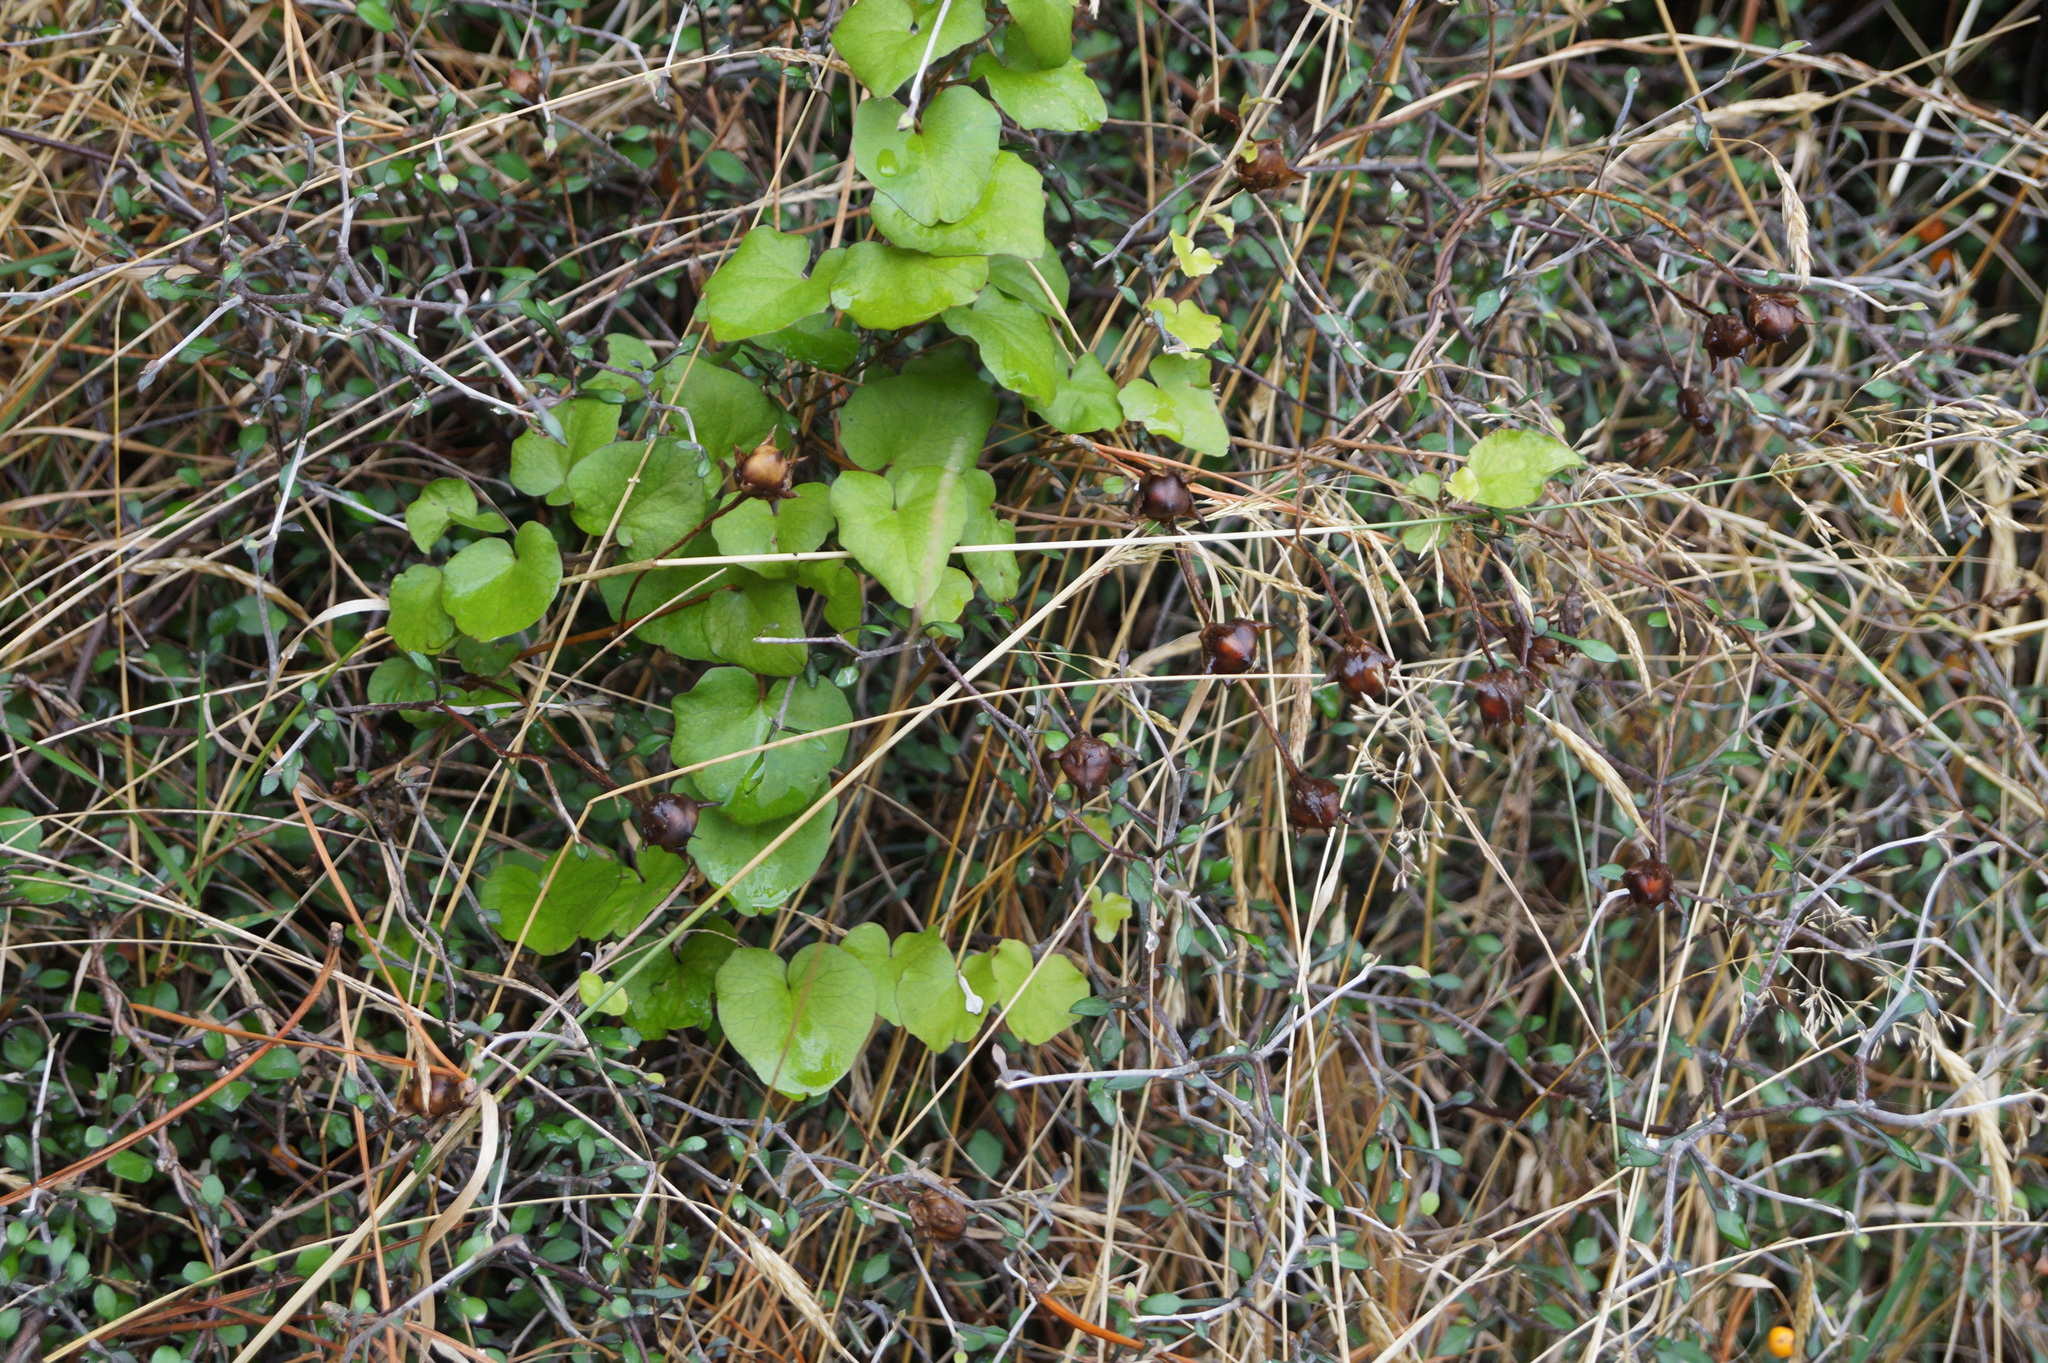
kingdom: Plantae
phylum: Tracheophyta
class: Magnoliopsida
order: Solanales
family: Convolvulaceae
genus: Calystegia
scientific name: Calystegia tuguriorum
